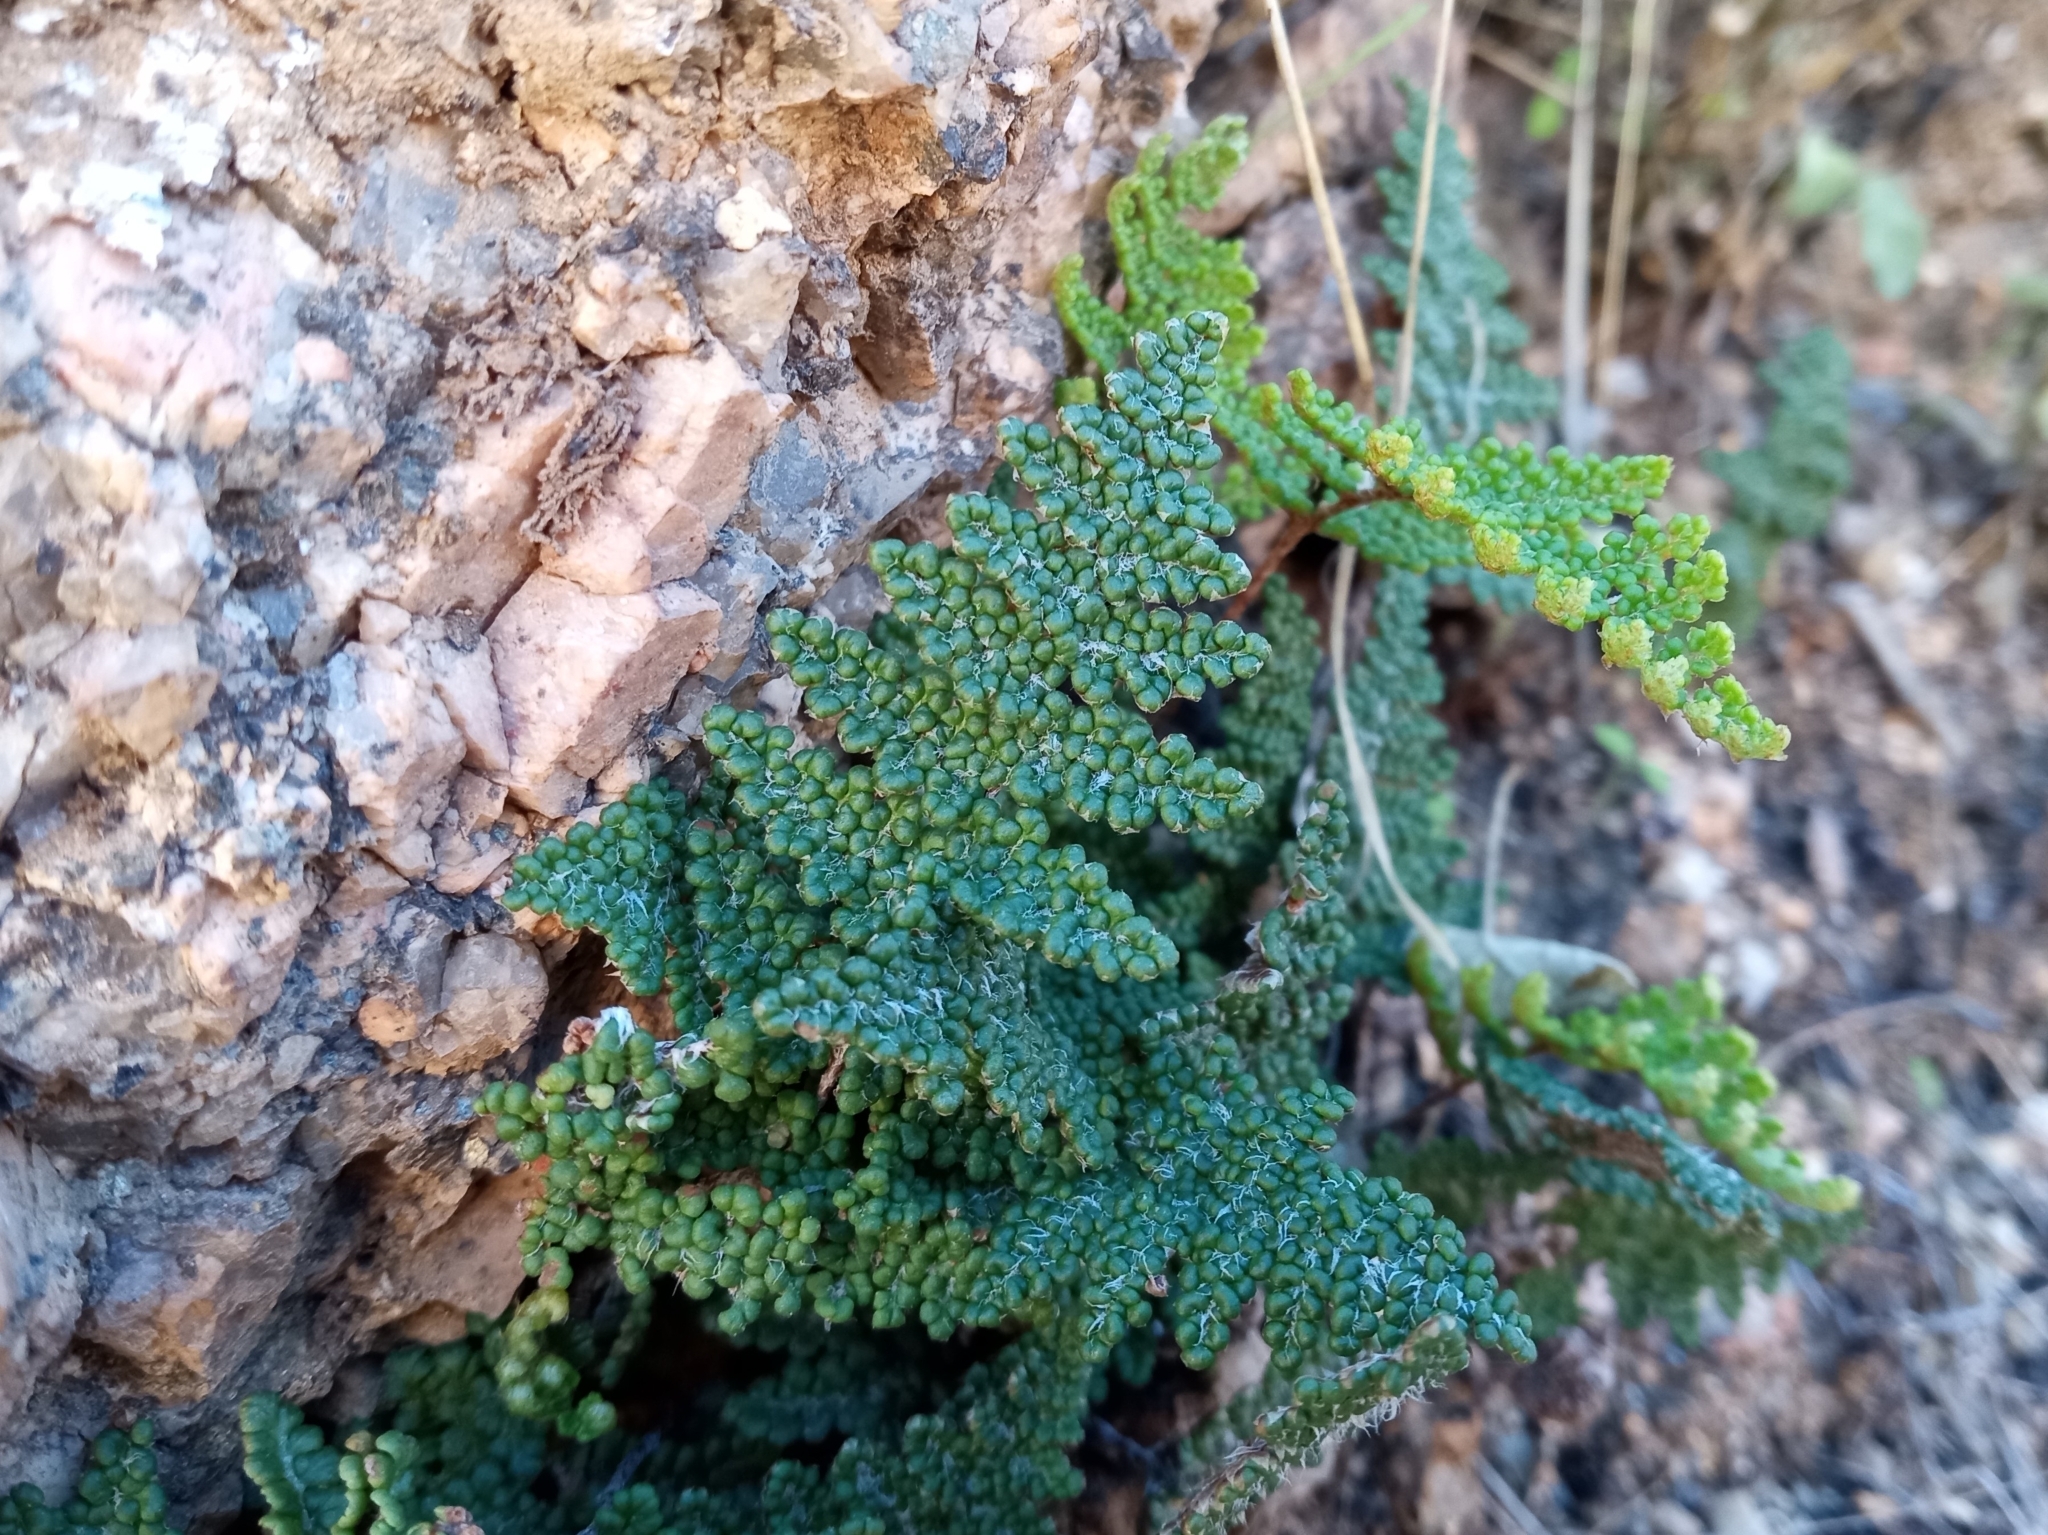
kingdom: Plantae
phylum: Tracheophyta
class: Polypodiopsida
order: Polypodiales
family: Pteridaceae
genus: Myriopteris
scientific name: Myriopteris covillei
